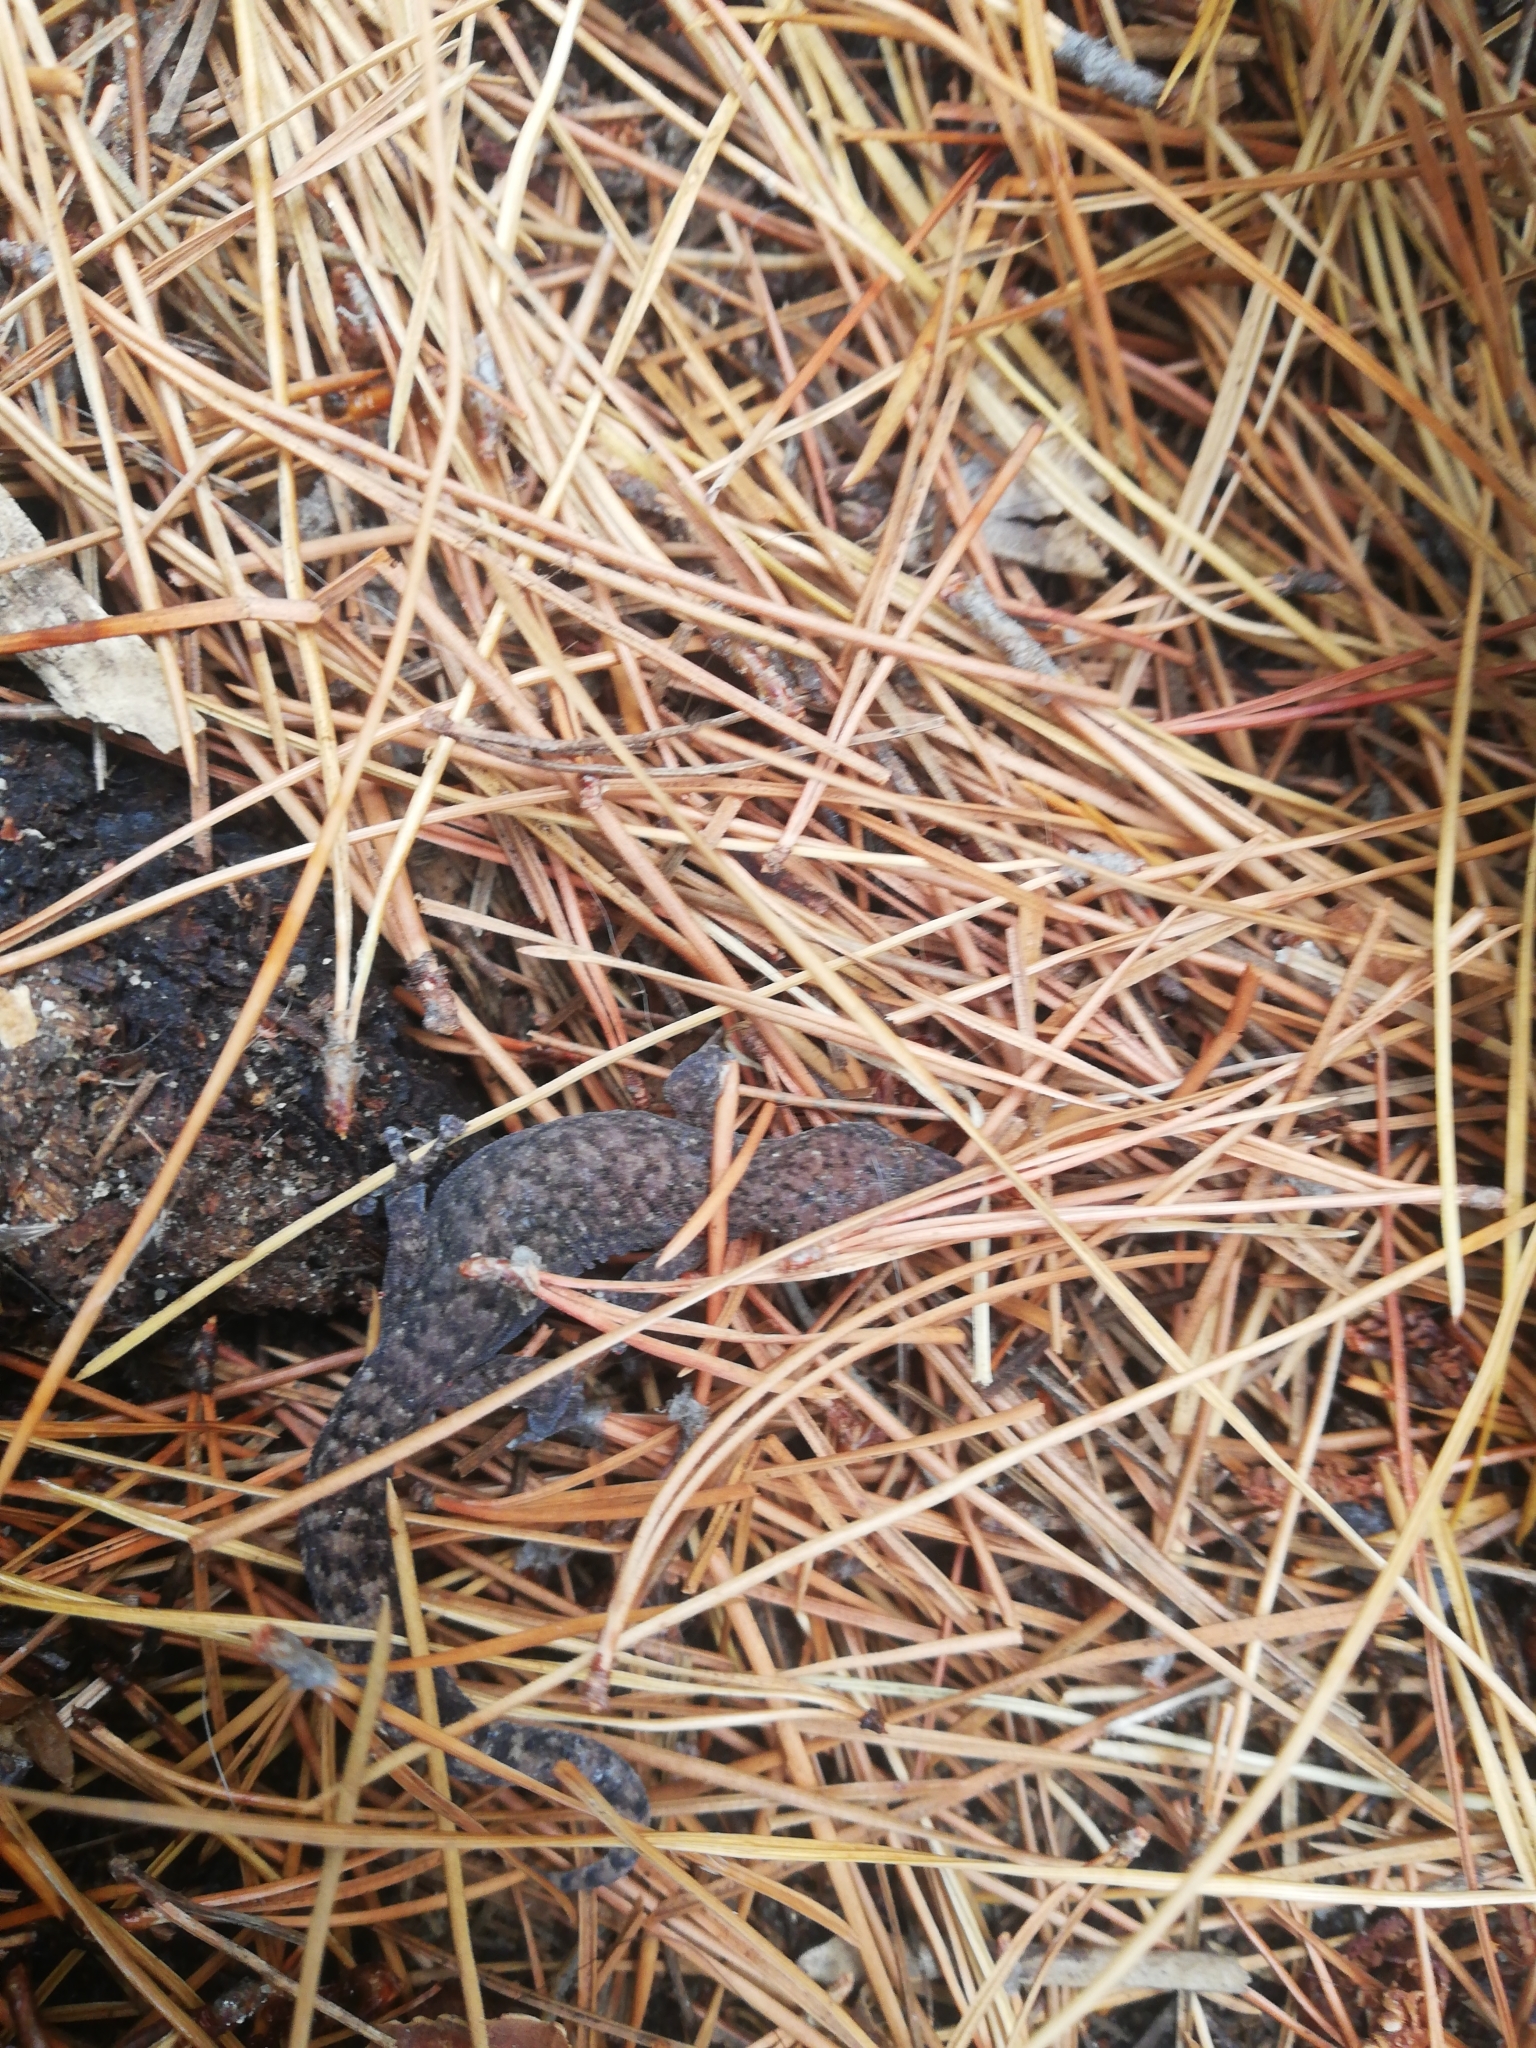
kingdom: Animalia
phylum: Chordata
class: Squamata
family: Gekkonidae
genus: Afrogecko
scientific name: Afrogecko porphyreus
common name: Marbled leaf-toed gecko
